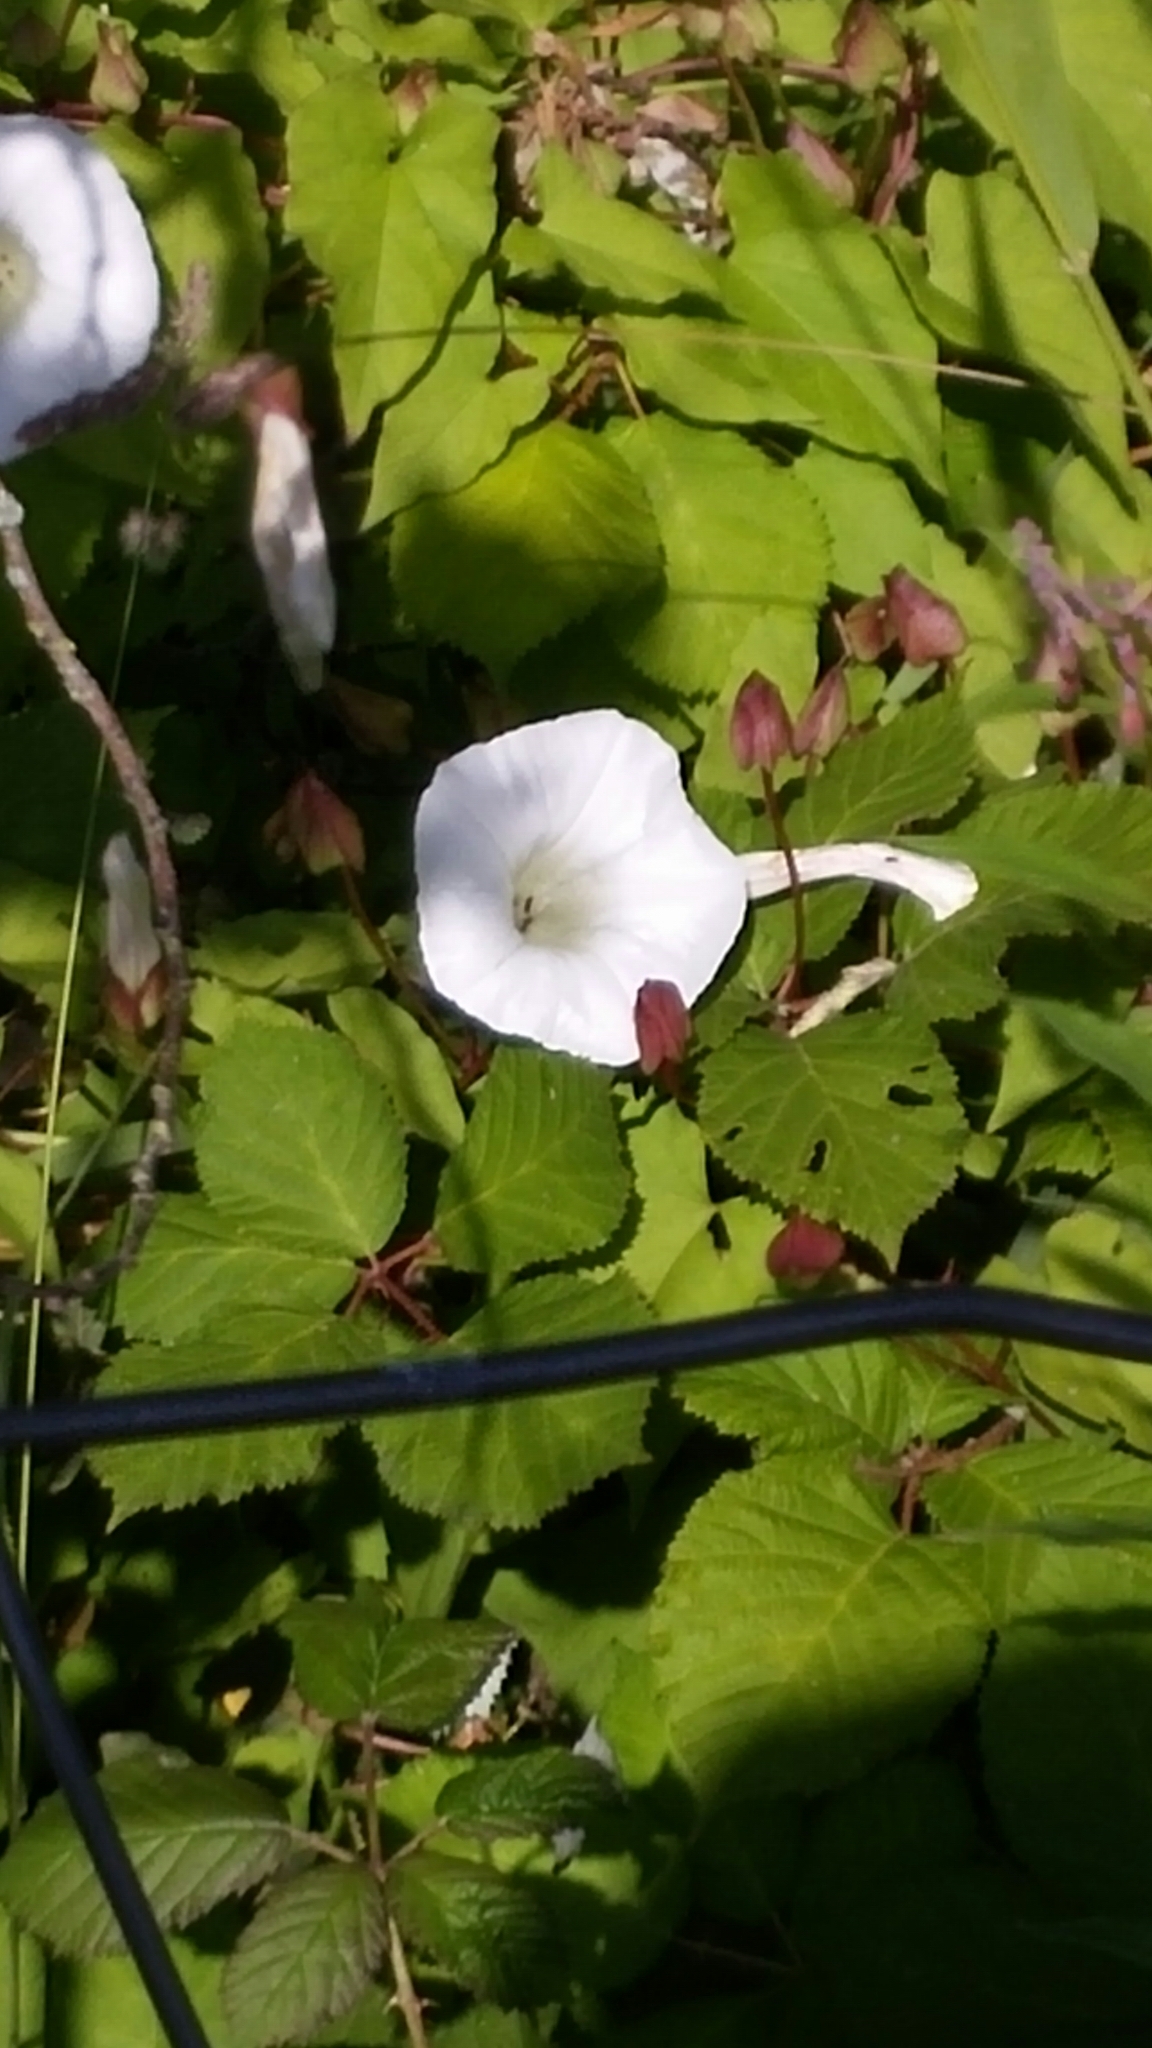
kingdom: Plantae
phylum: Tracheophyta
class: Magnoliopsida
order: Solanales
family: Convolvulaceae
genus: Calystegia
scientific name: Calystegia sepium
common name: Hedge bindweed
